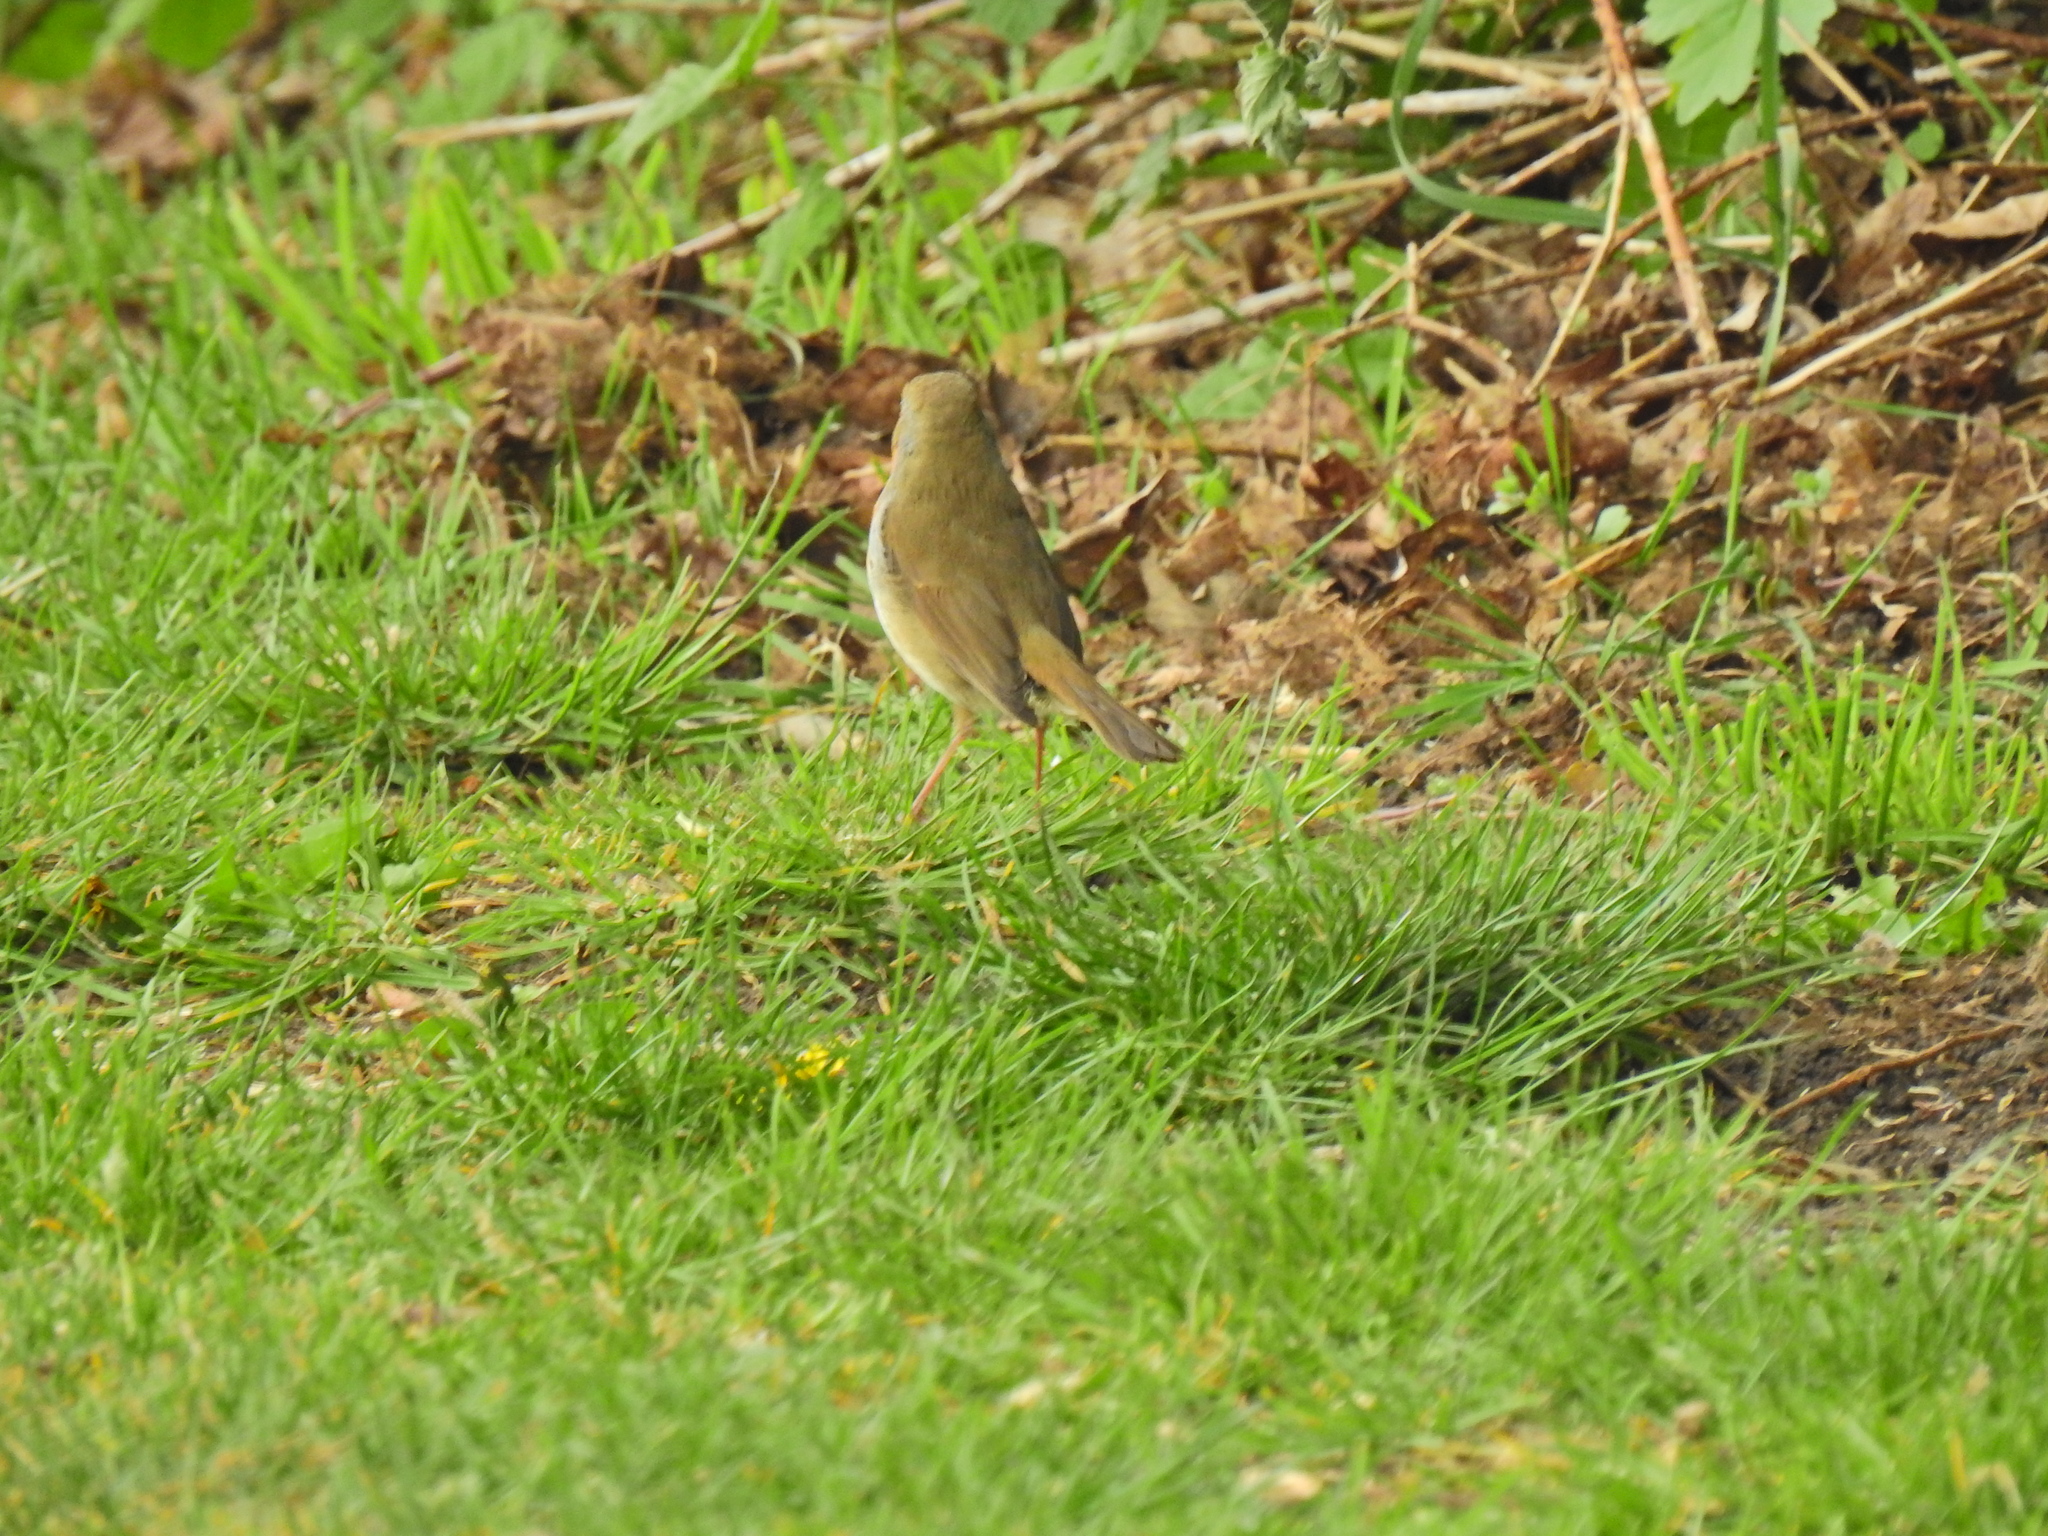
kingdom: Animalia
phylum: Chordata
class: Aves
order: Passeriformes
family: Muscicapidae
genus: Erithacus
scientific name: Erithacus rubecula
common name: European robin
